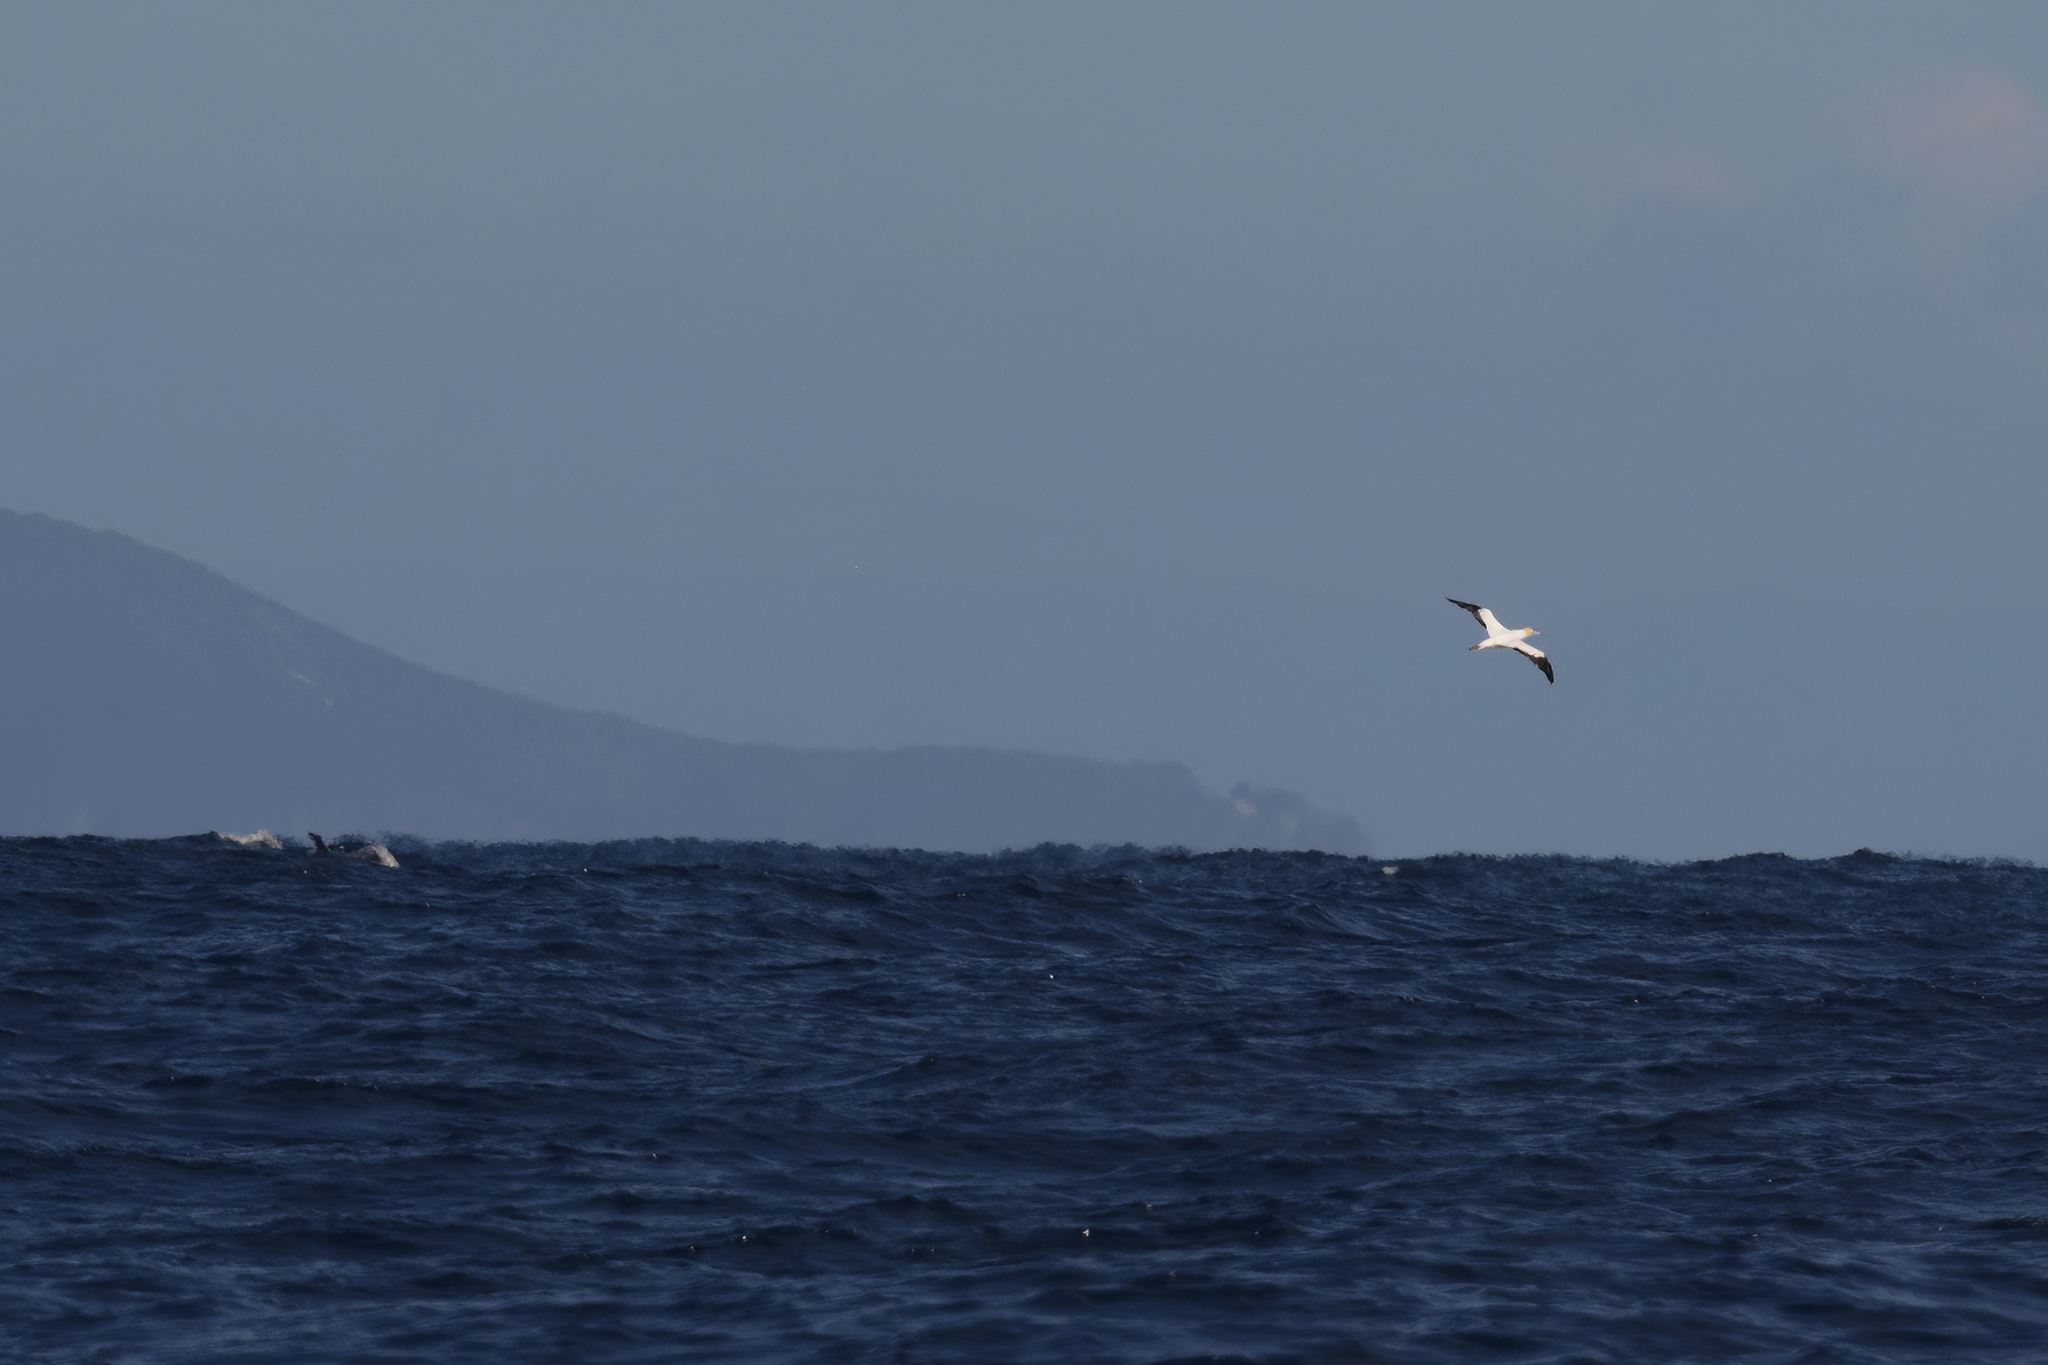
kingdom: Animalia
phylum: Chordata
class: Aves
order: Suliformes
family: Sulidae
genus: Morus
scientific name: Morus serrator
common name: Australasian gannet
